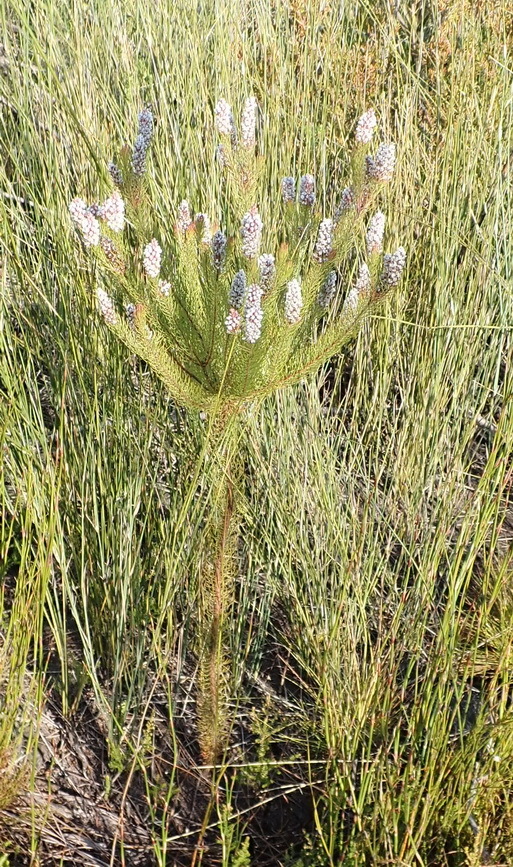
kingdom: Plantae
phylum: Tracheophyta
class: Magnoliopsida
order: Proteales
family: Proteaceae
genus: Spatalla
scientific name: Spatalla parilis
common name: Spike spoon
